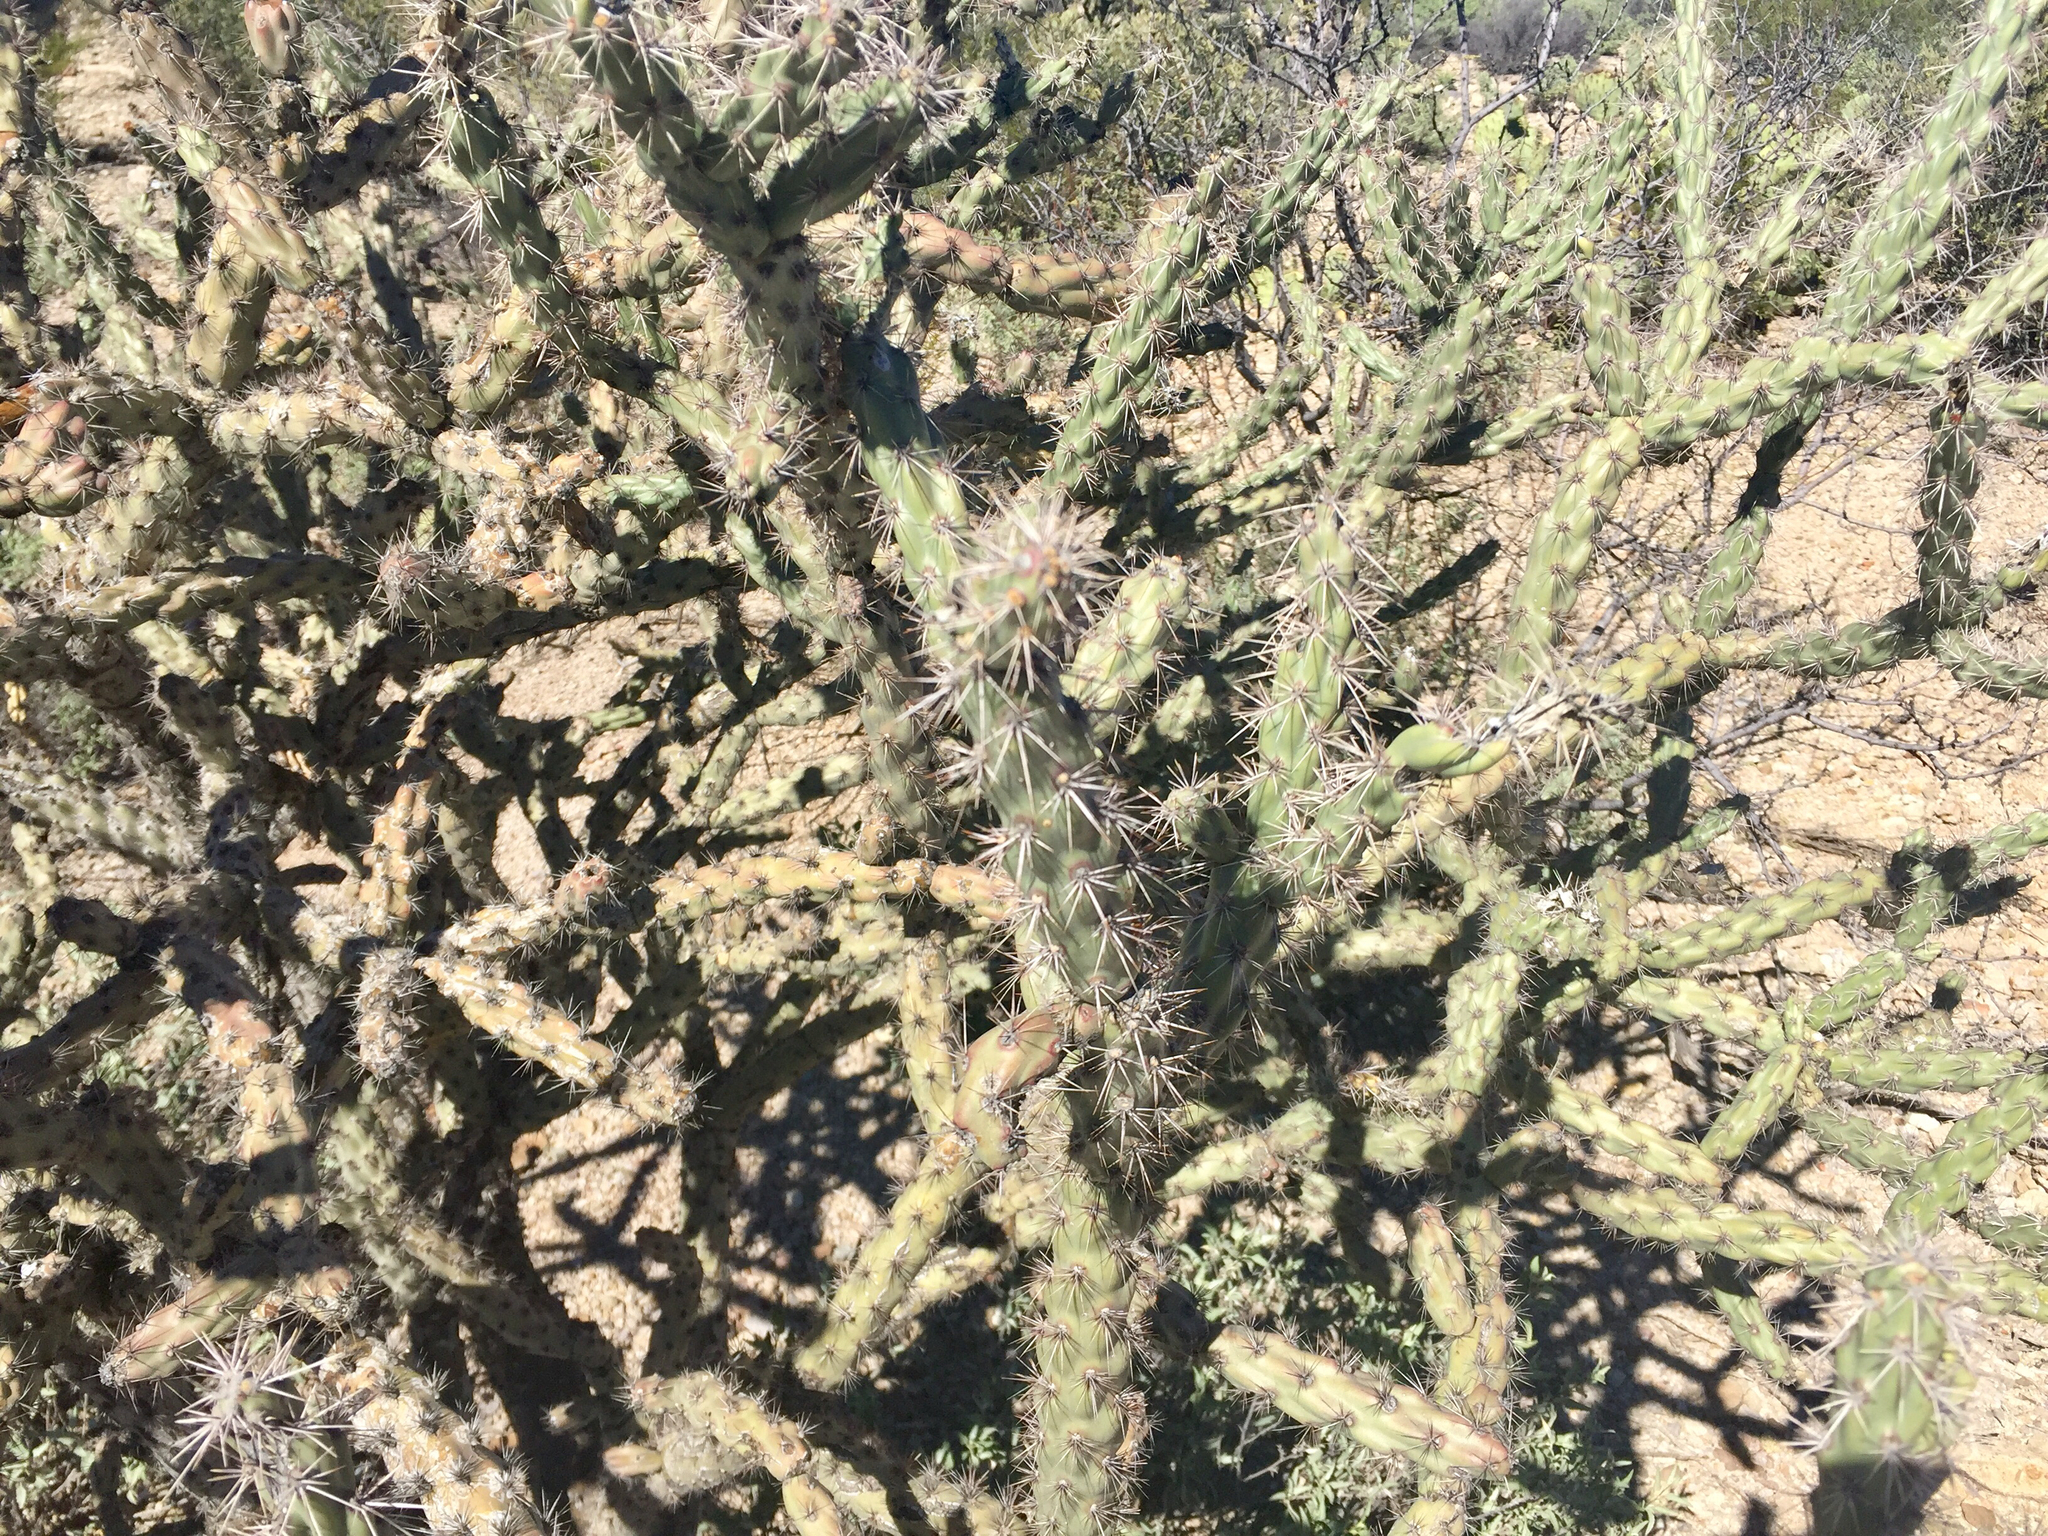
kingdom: Plantae
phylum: Tracheophyta
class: Magnoliopsida
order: Caryophyllales
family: Cactaceae
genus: Cylindropuntia
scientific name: Cylindropuntia thurberi
